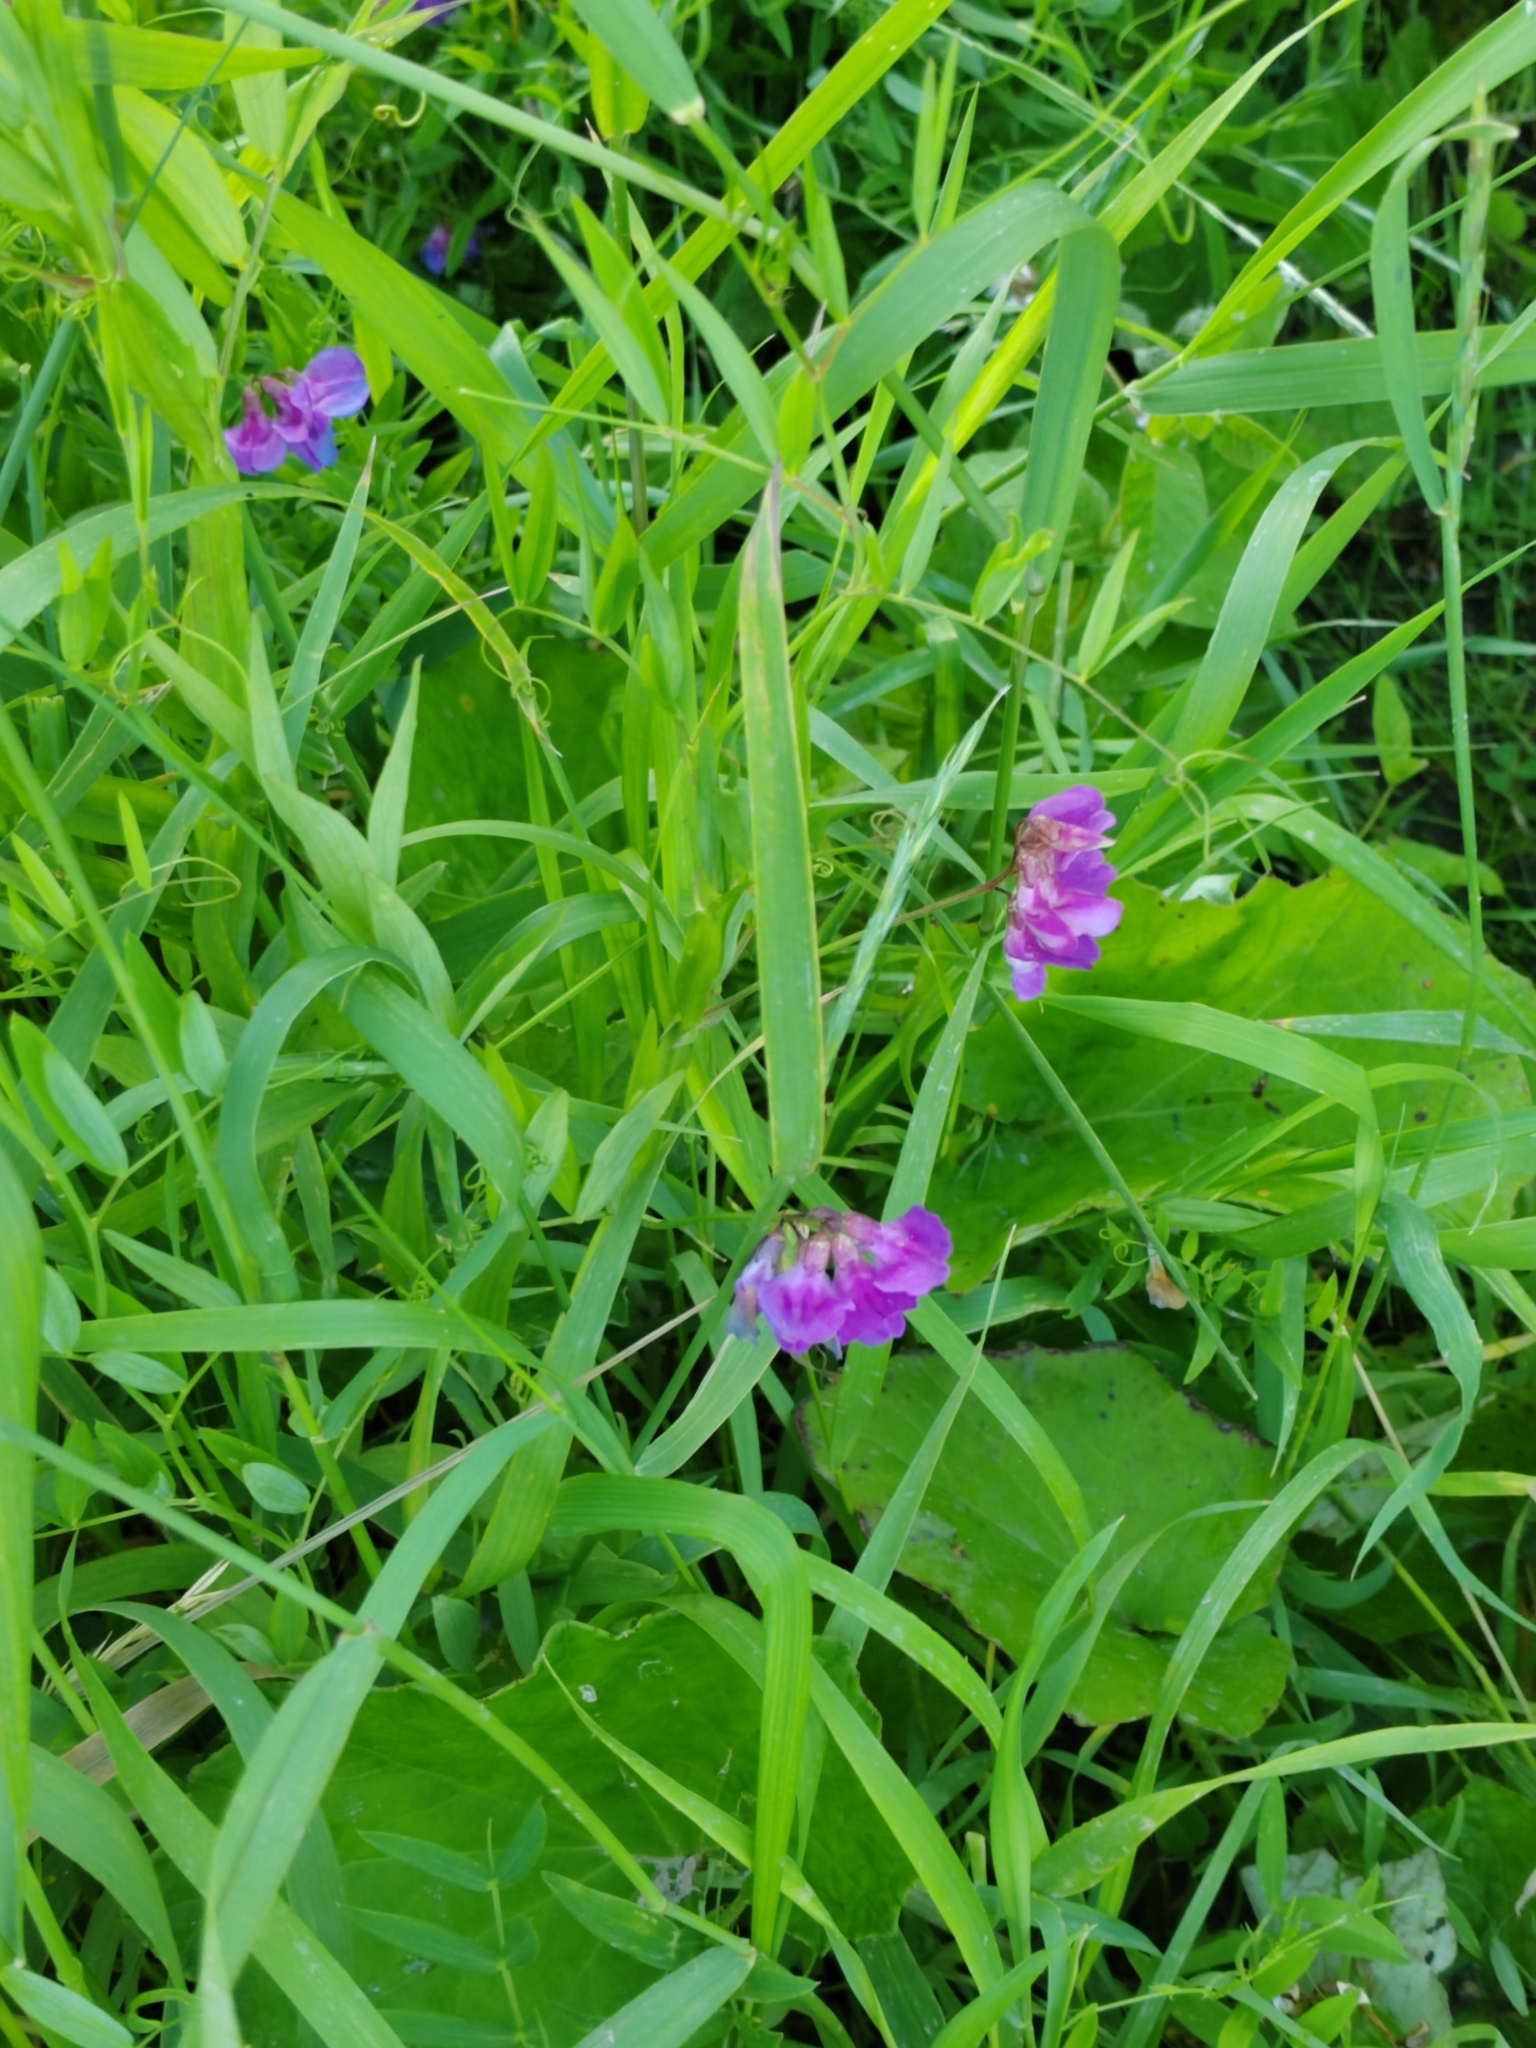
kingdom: Plantae
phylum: Tracheophyta
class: Magnoliopsida
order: Fabales
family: Fabaceae
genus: Lathyrus
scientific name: Lathyrus palustris
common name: Marsh pea
